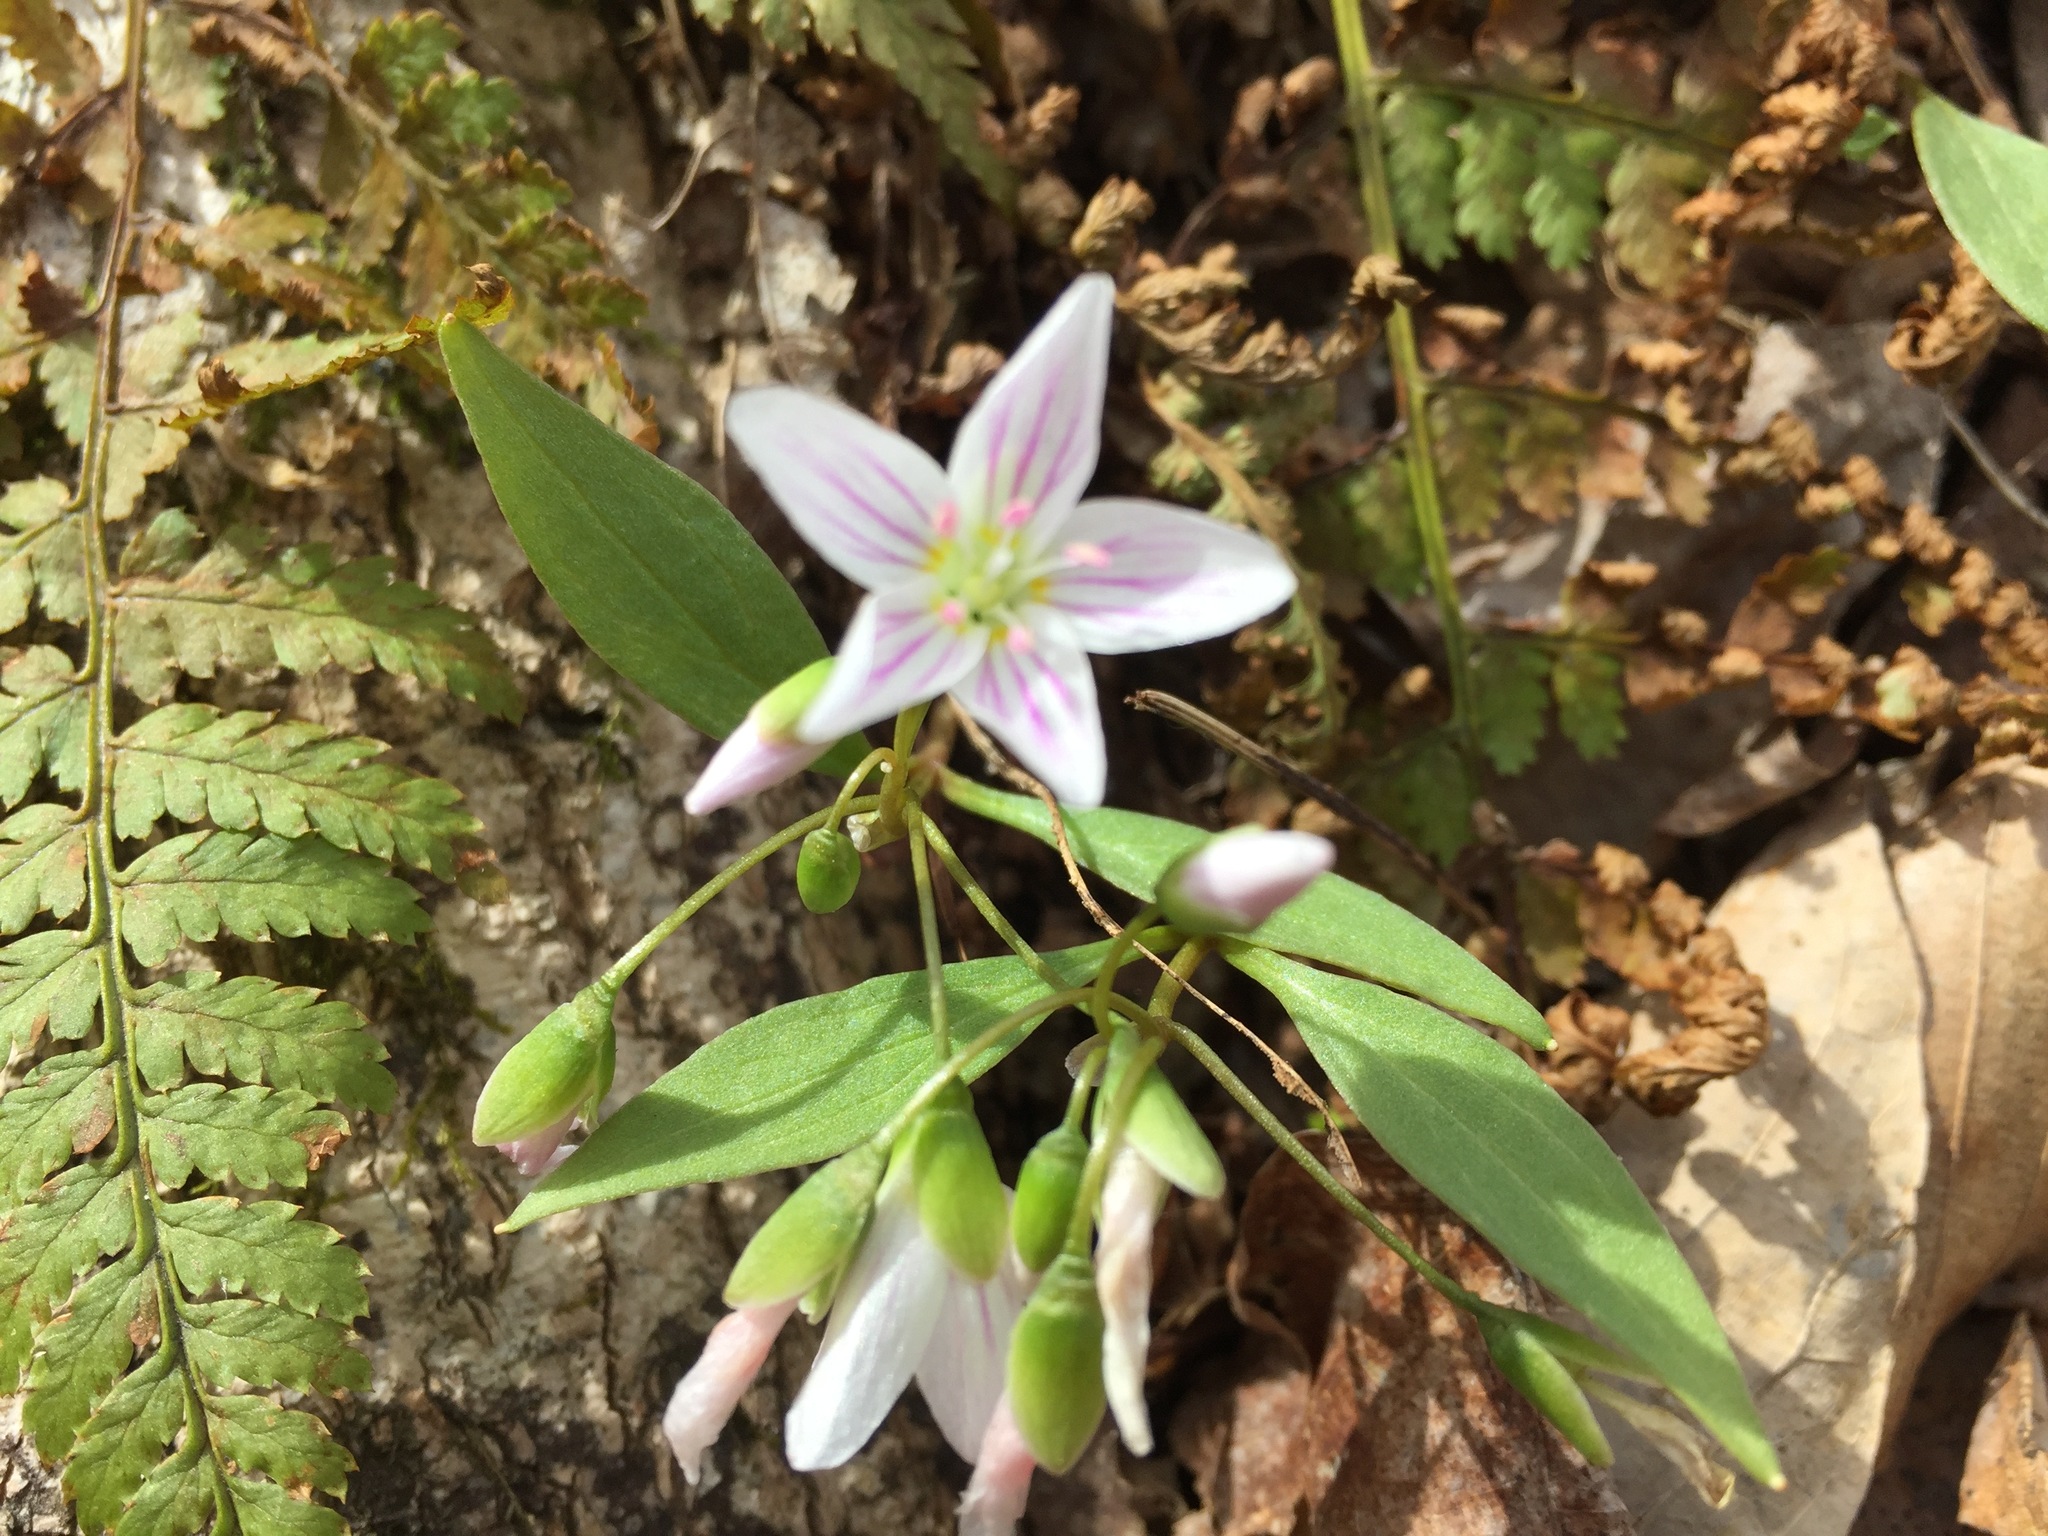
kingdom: Plantae
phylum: Tracheophyta
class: Magnoliopsida
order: Caryophyllales
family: Montiaceae
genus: Claytonia
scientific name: Claytonia caroliniana
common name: Carolina spring beauty
